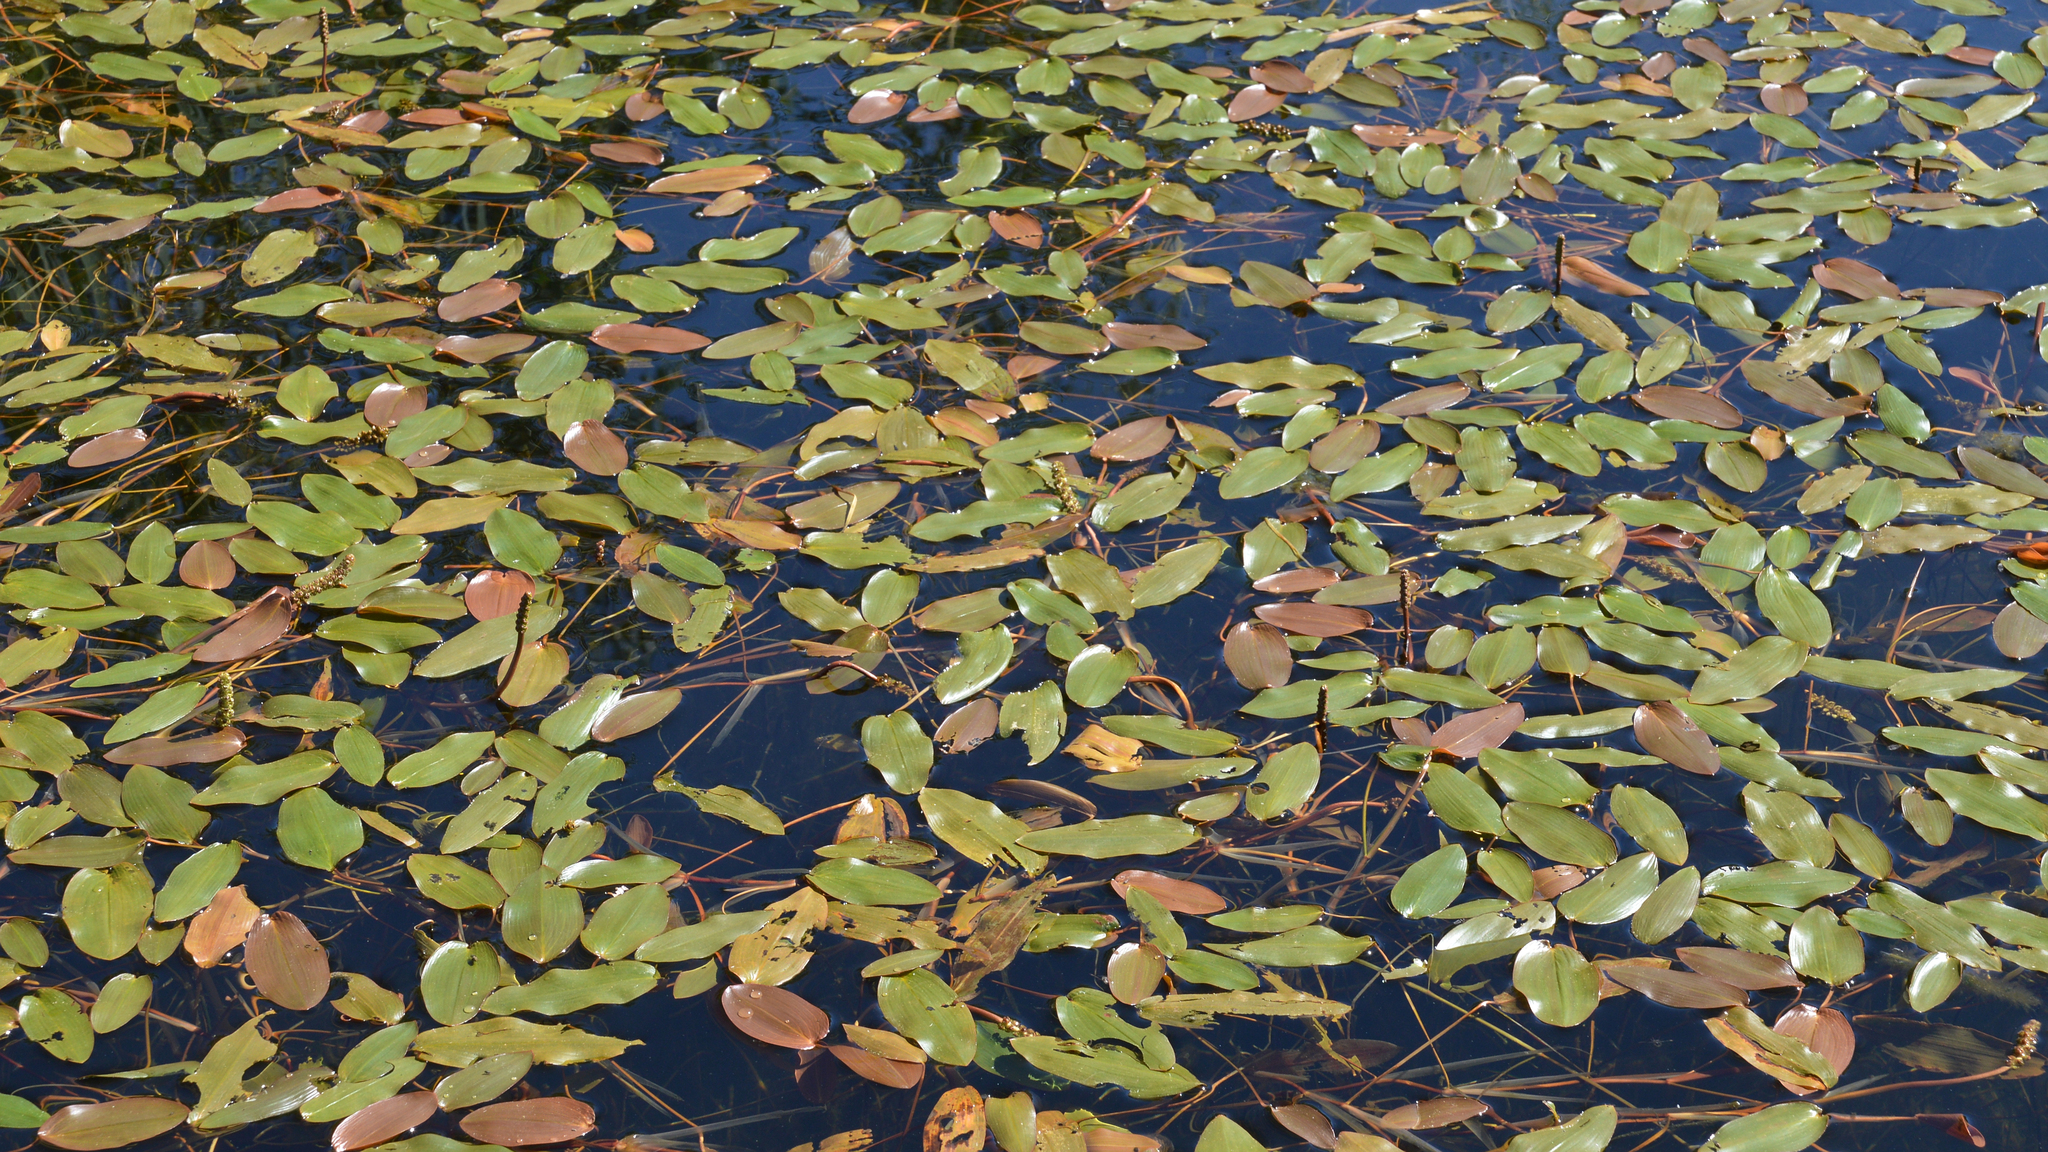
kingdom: Plantae
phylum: Tracheophyta
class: Liliopsida
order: Alismatales
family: Potamogetonaceae
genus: Potamogeton
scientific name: Potamogeton natans
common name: Broad-leaved pondweed
